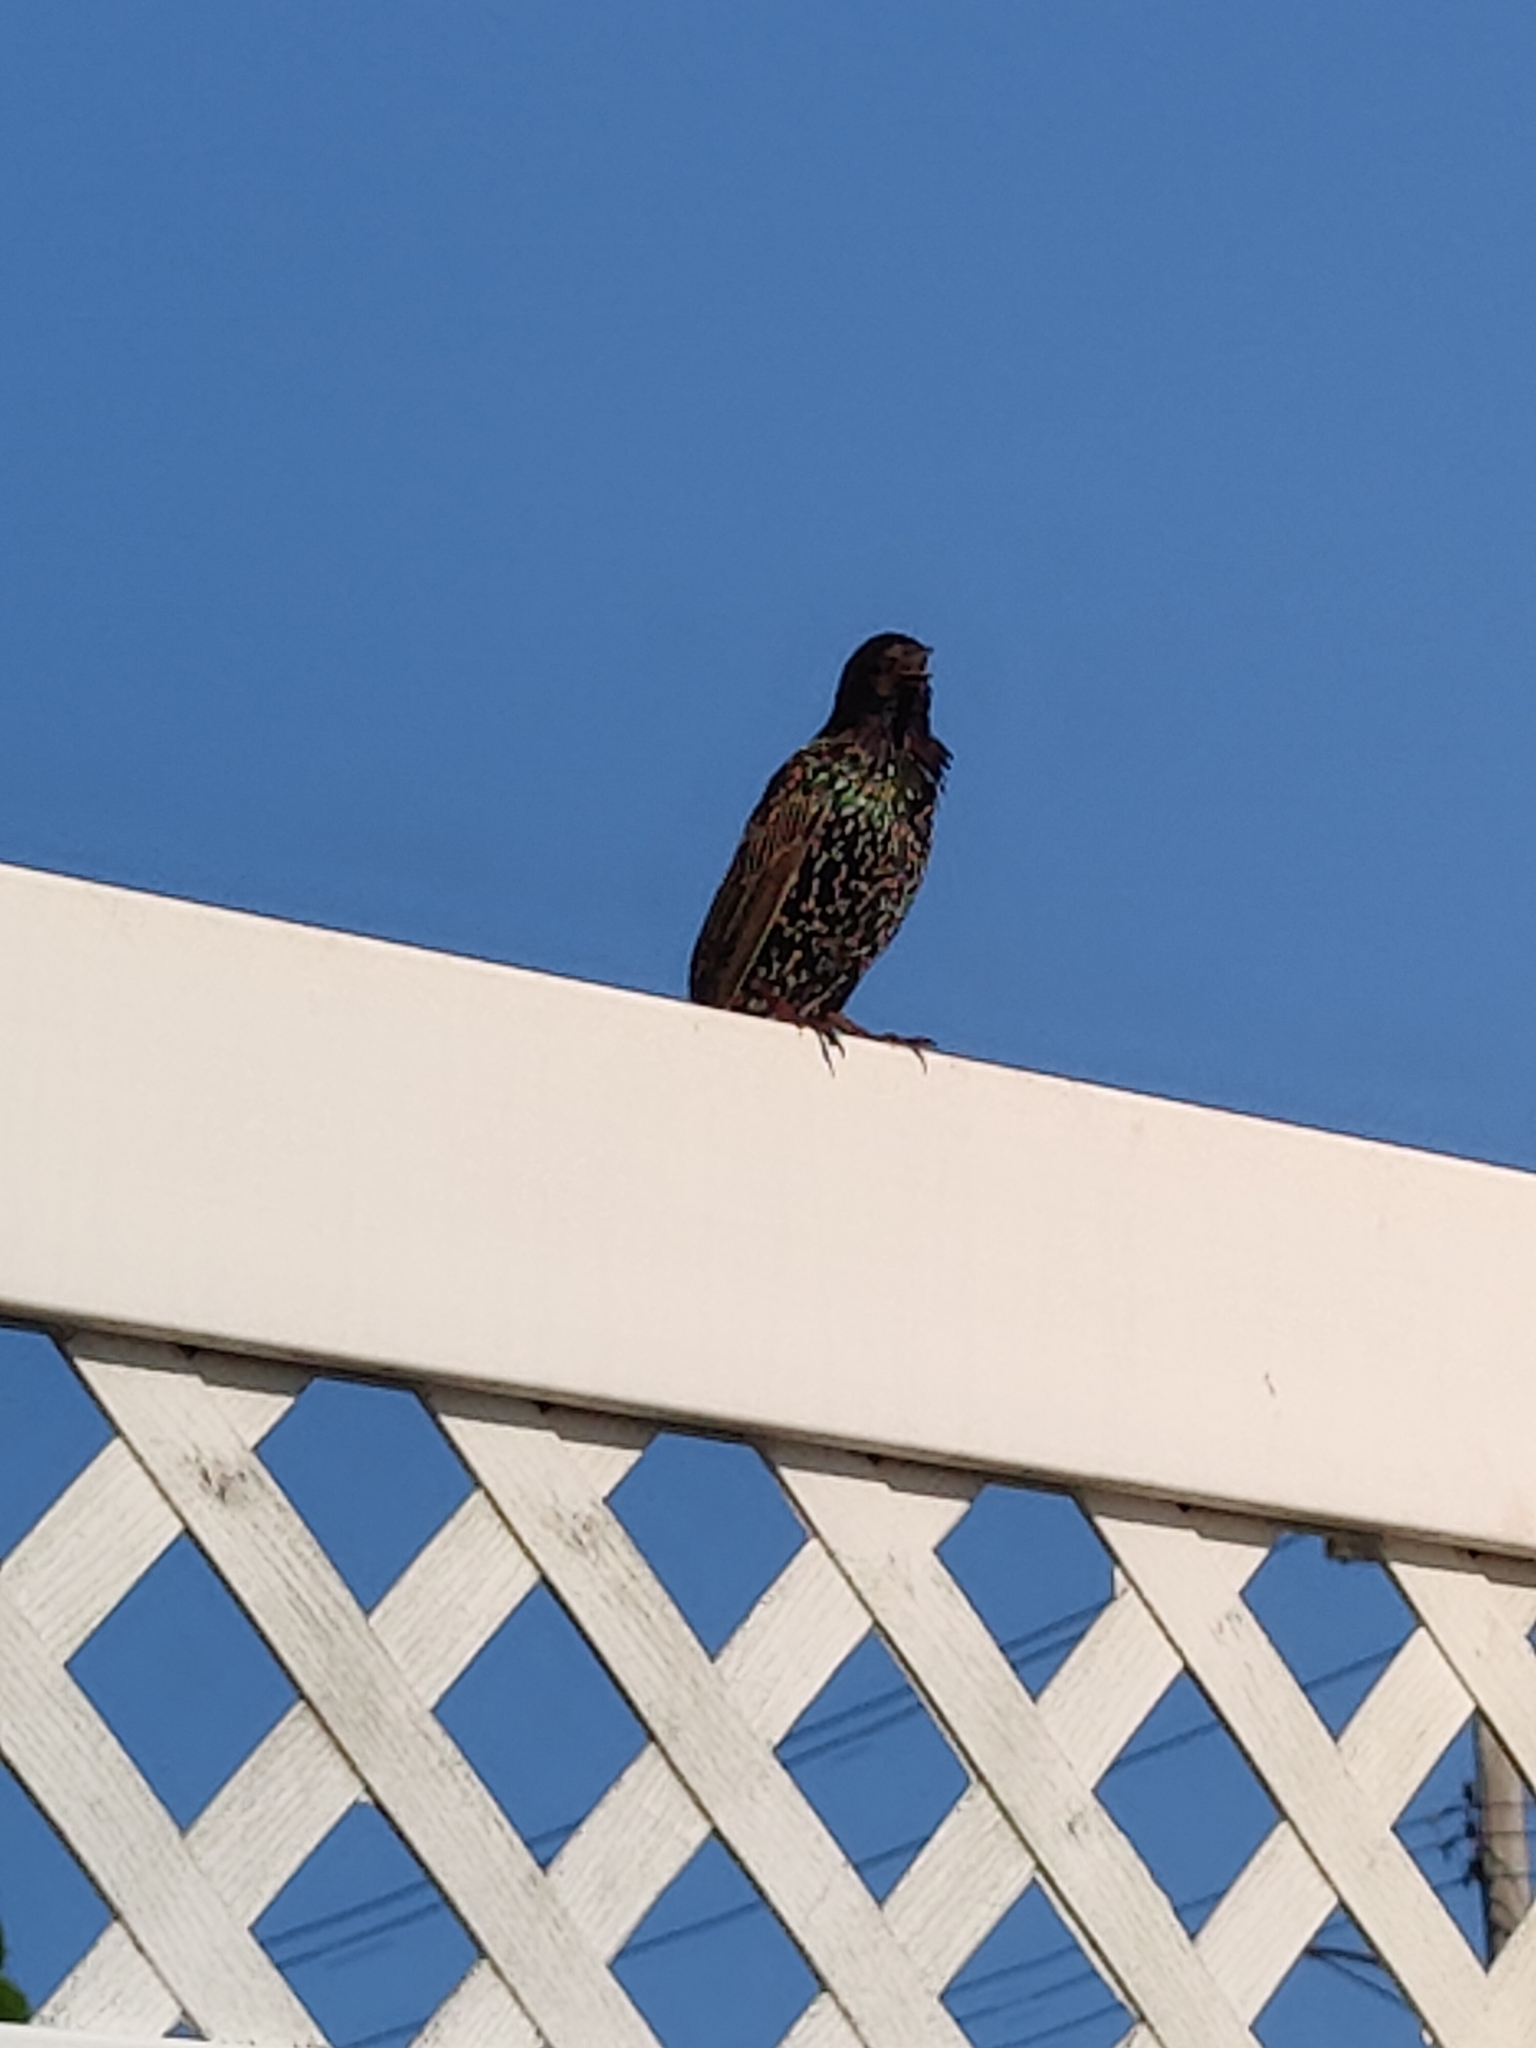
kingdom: Animalia
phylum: Chordata
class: Aves
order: Passeriformes
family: Sturnidae
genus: Sturnus
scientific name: Sturnus vulgaris
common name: Common starling
